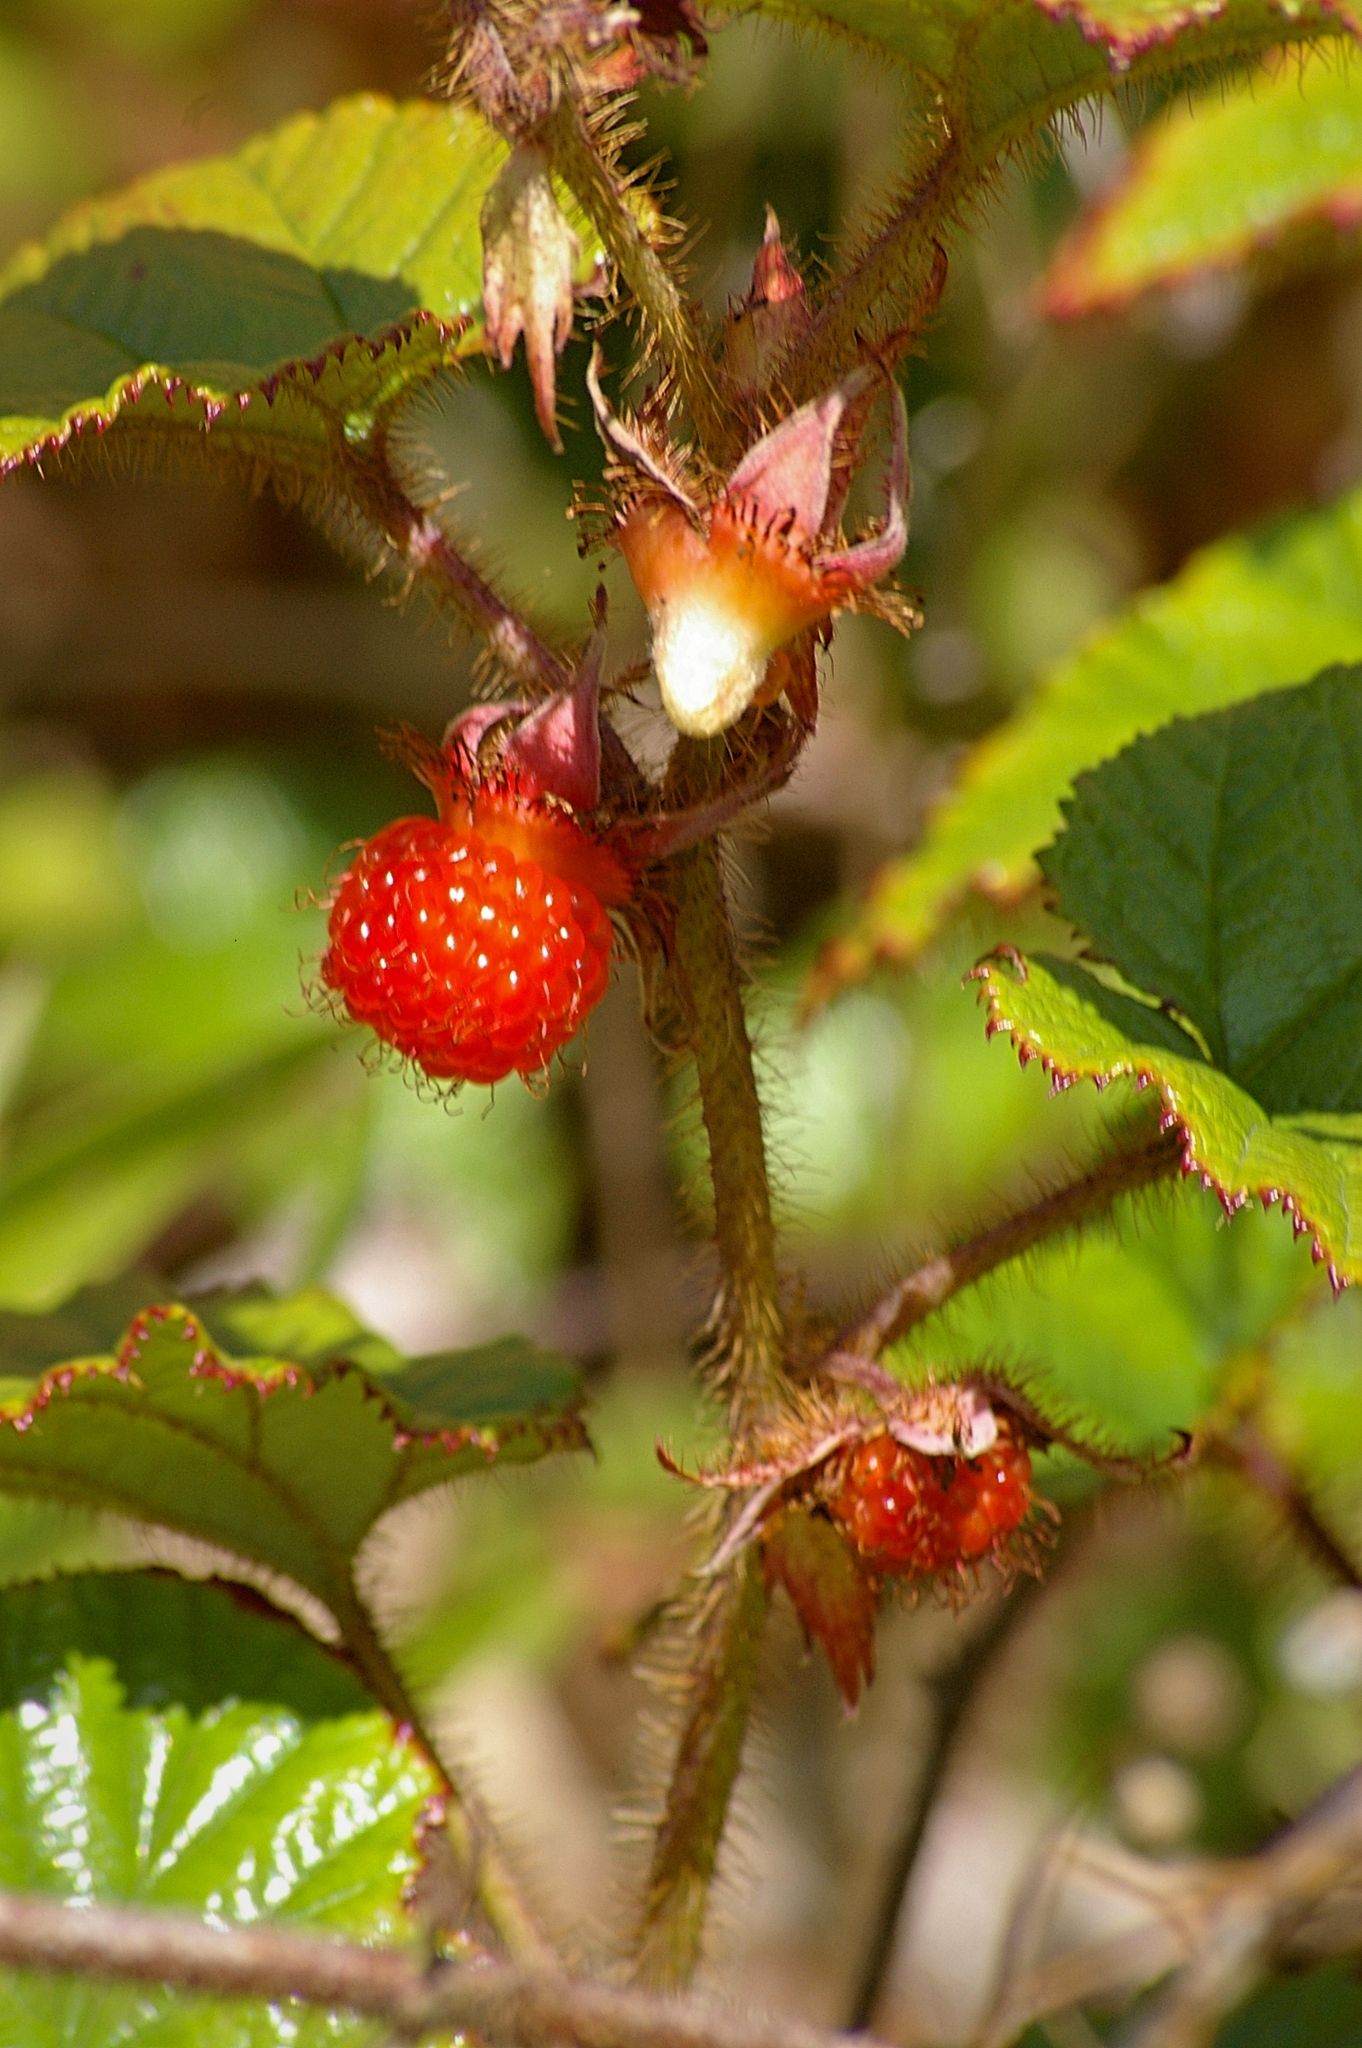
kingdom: Plantae
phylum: Tracheophyta
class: Magnoliopsida
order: Rosales
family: Rosaceae
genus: Rubus
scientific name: Rubus tricolor
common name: Chinese bramble
